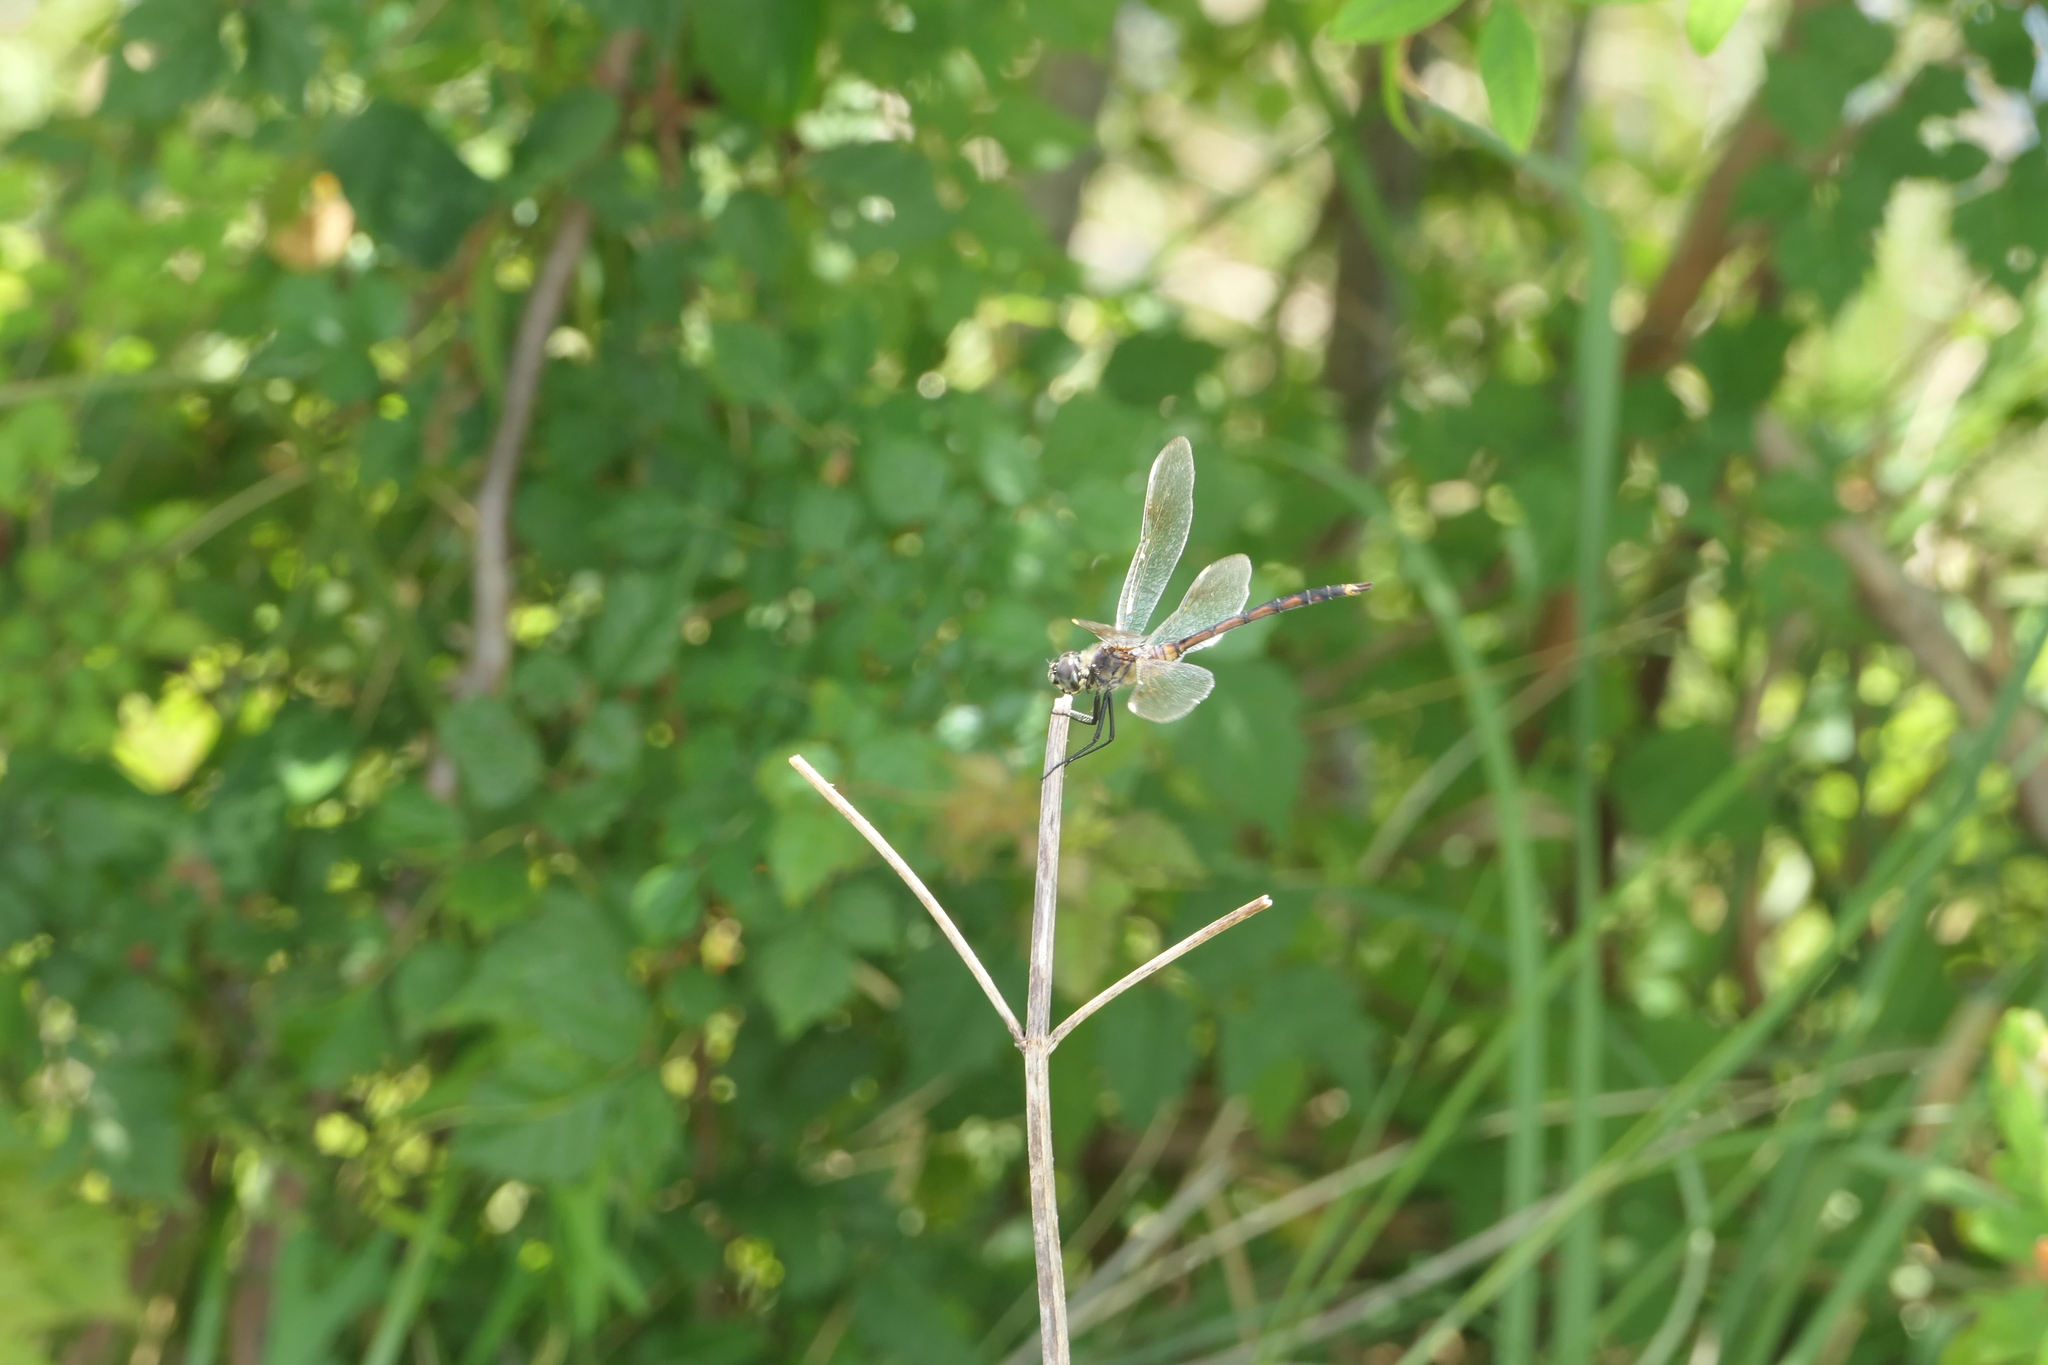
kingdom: Animalia
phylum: Arthropoda
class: Insecta
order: Odonata
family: Libellulidae
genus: Brachymesia
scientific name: Brachymesia gravida
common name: Four-spotted pennant
